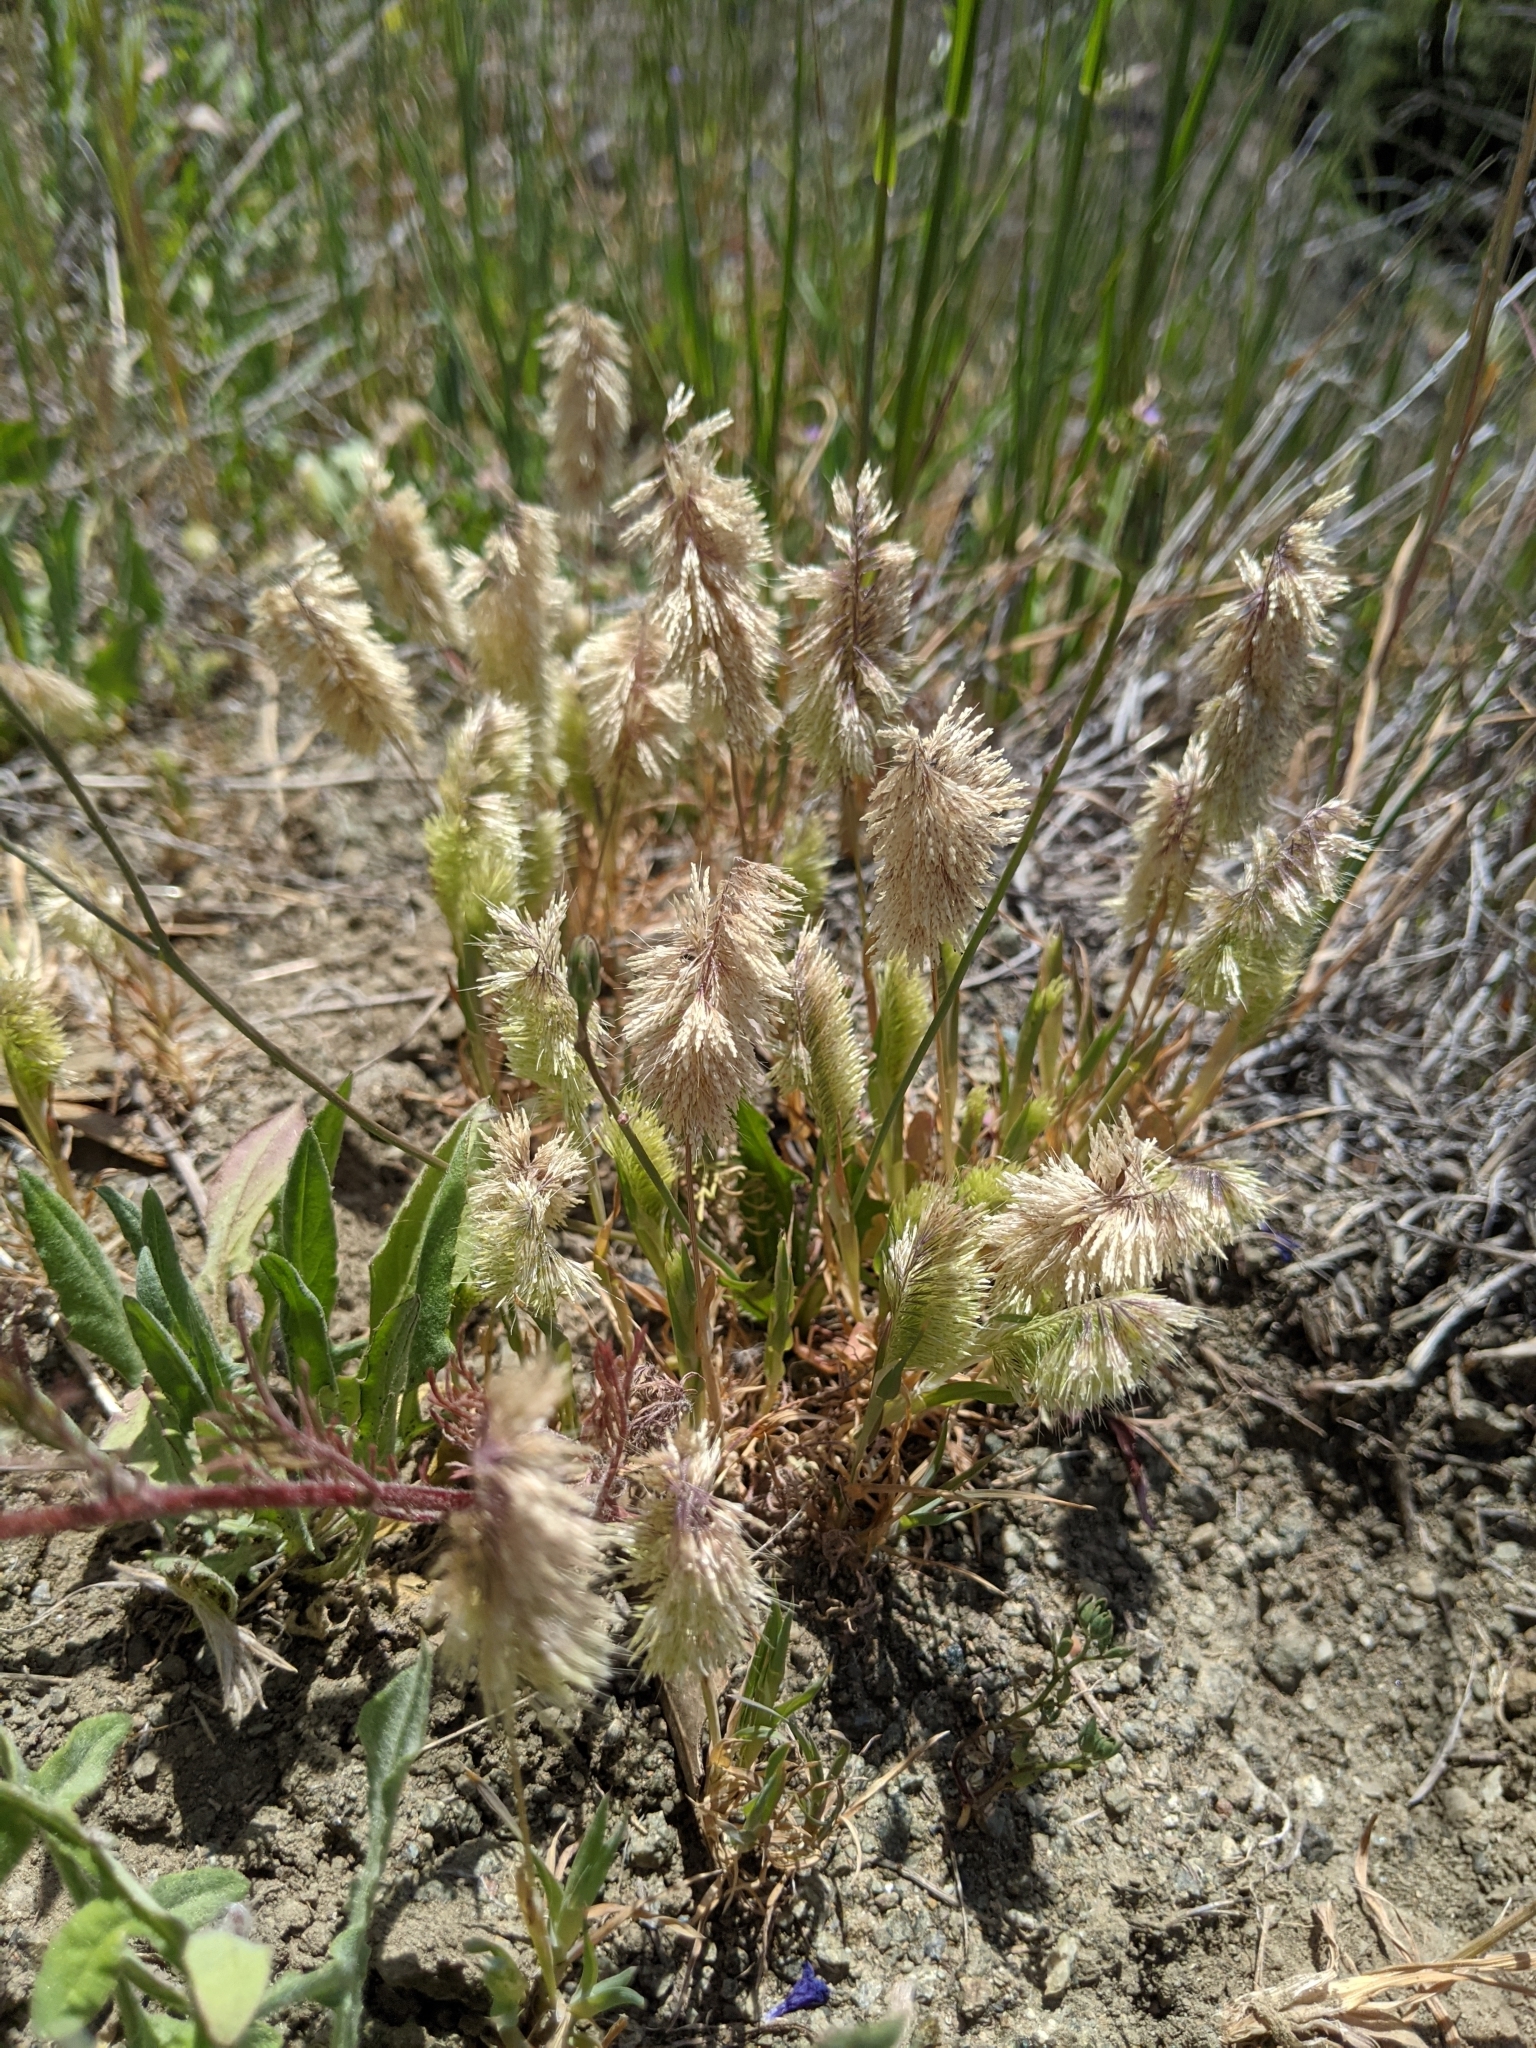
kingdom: Plantae
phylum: Tracheophyta
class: Liliopsida
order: Poales
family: Poaceae
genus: Lamarckia
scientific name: Lamarckia aurea
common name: Golden dog's-tail
